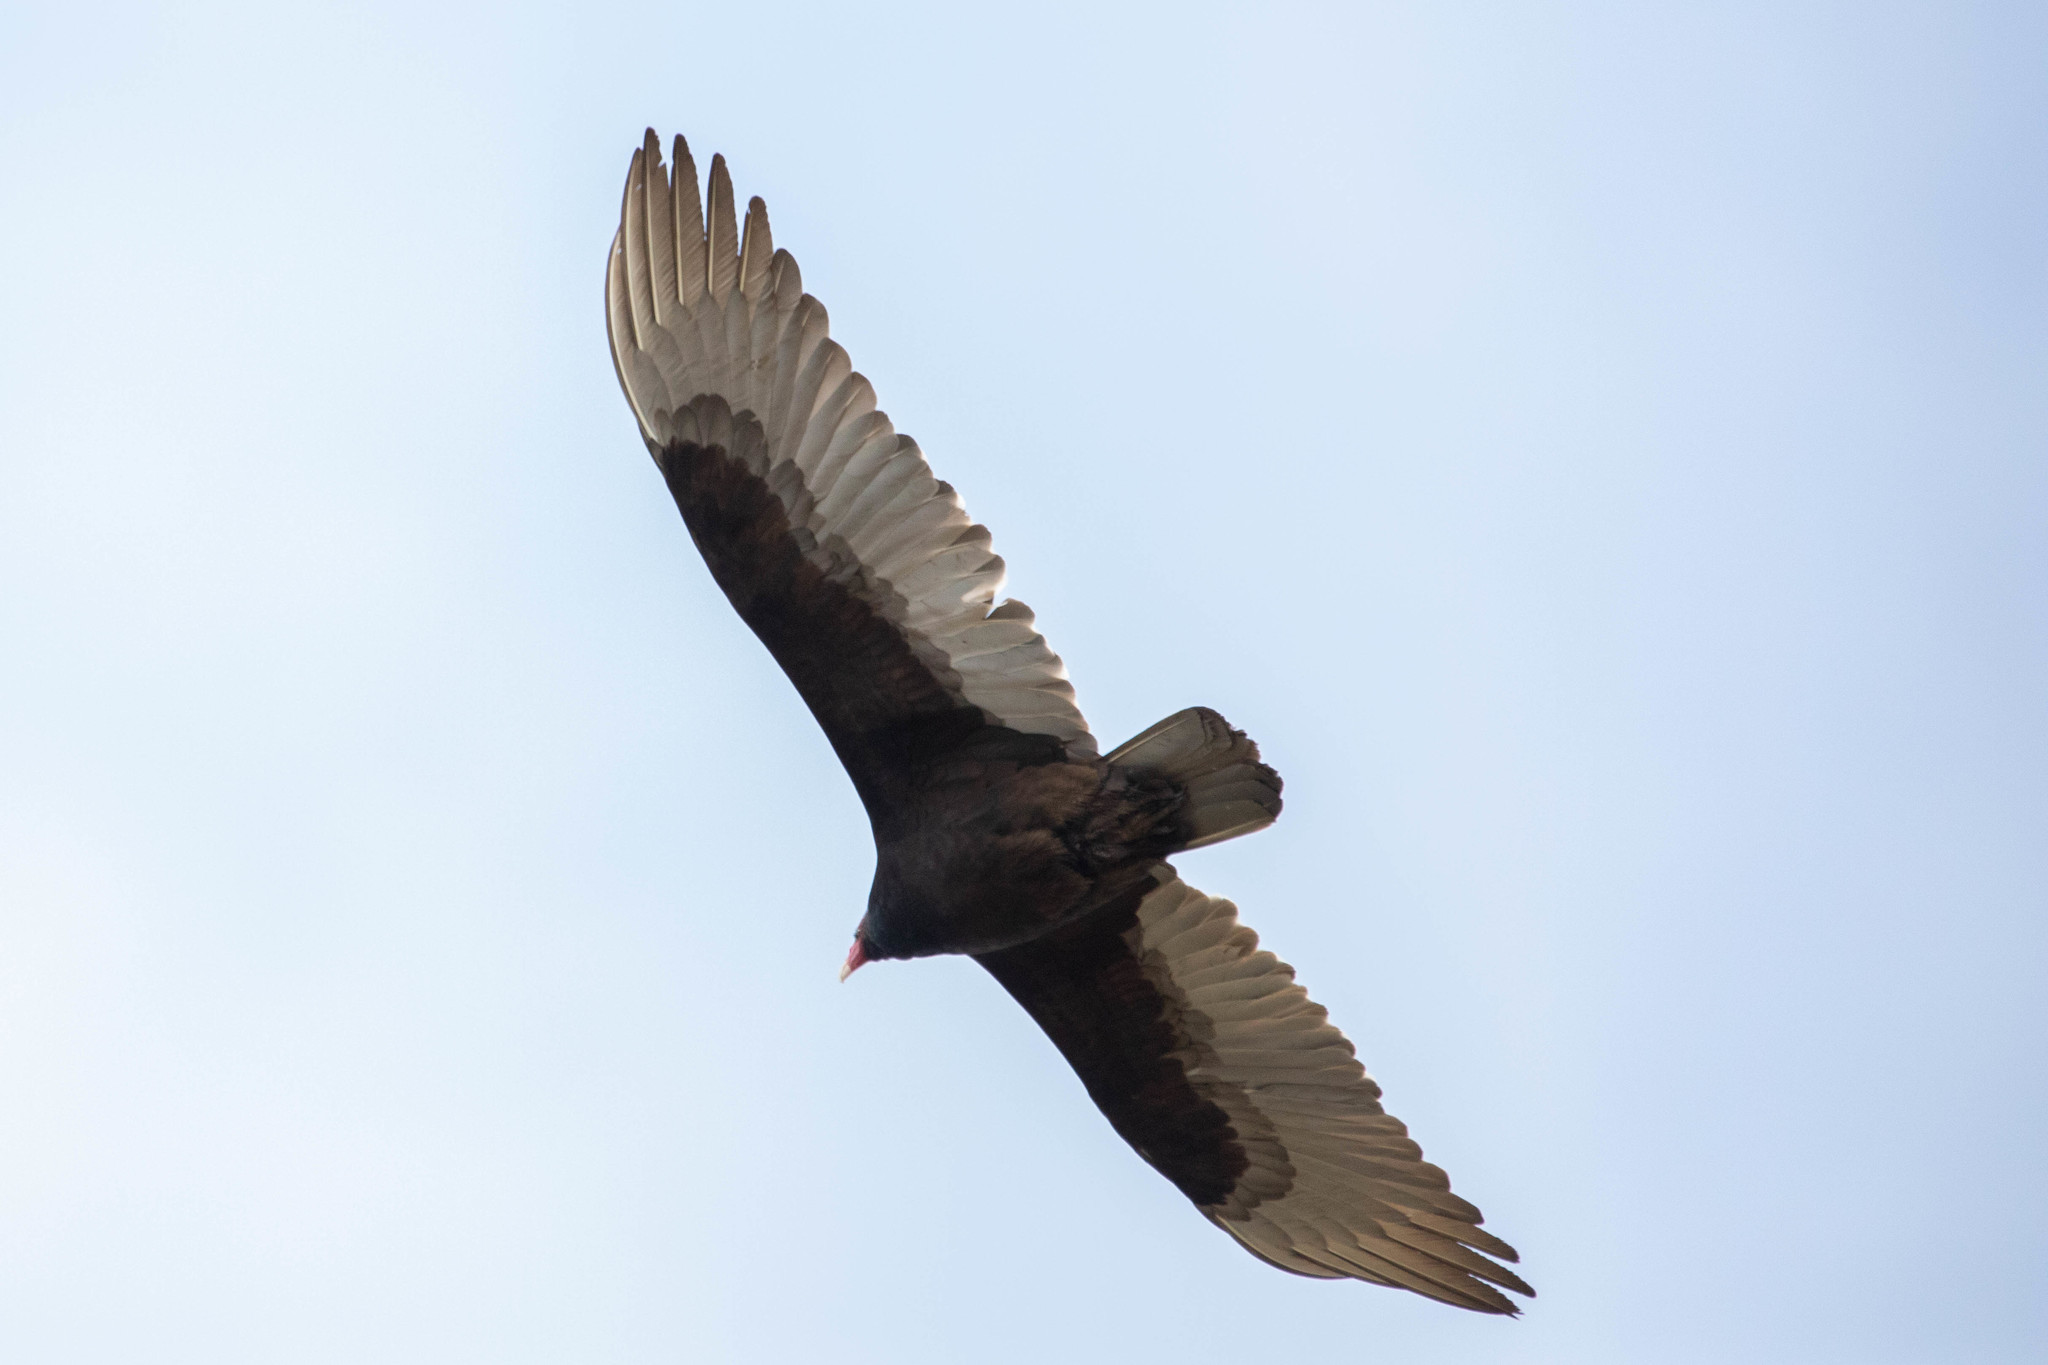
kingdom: Animalia
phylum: Chordata
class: Aves
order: Accipitriformes
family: Cathartidae
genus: Cathartes
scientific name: Cathartes aura
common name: Turkey vulture
